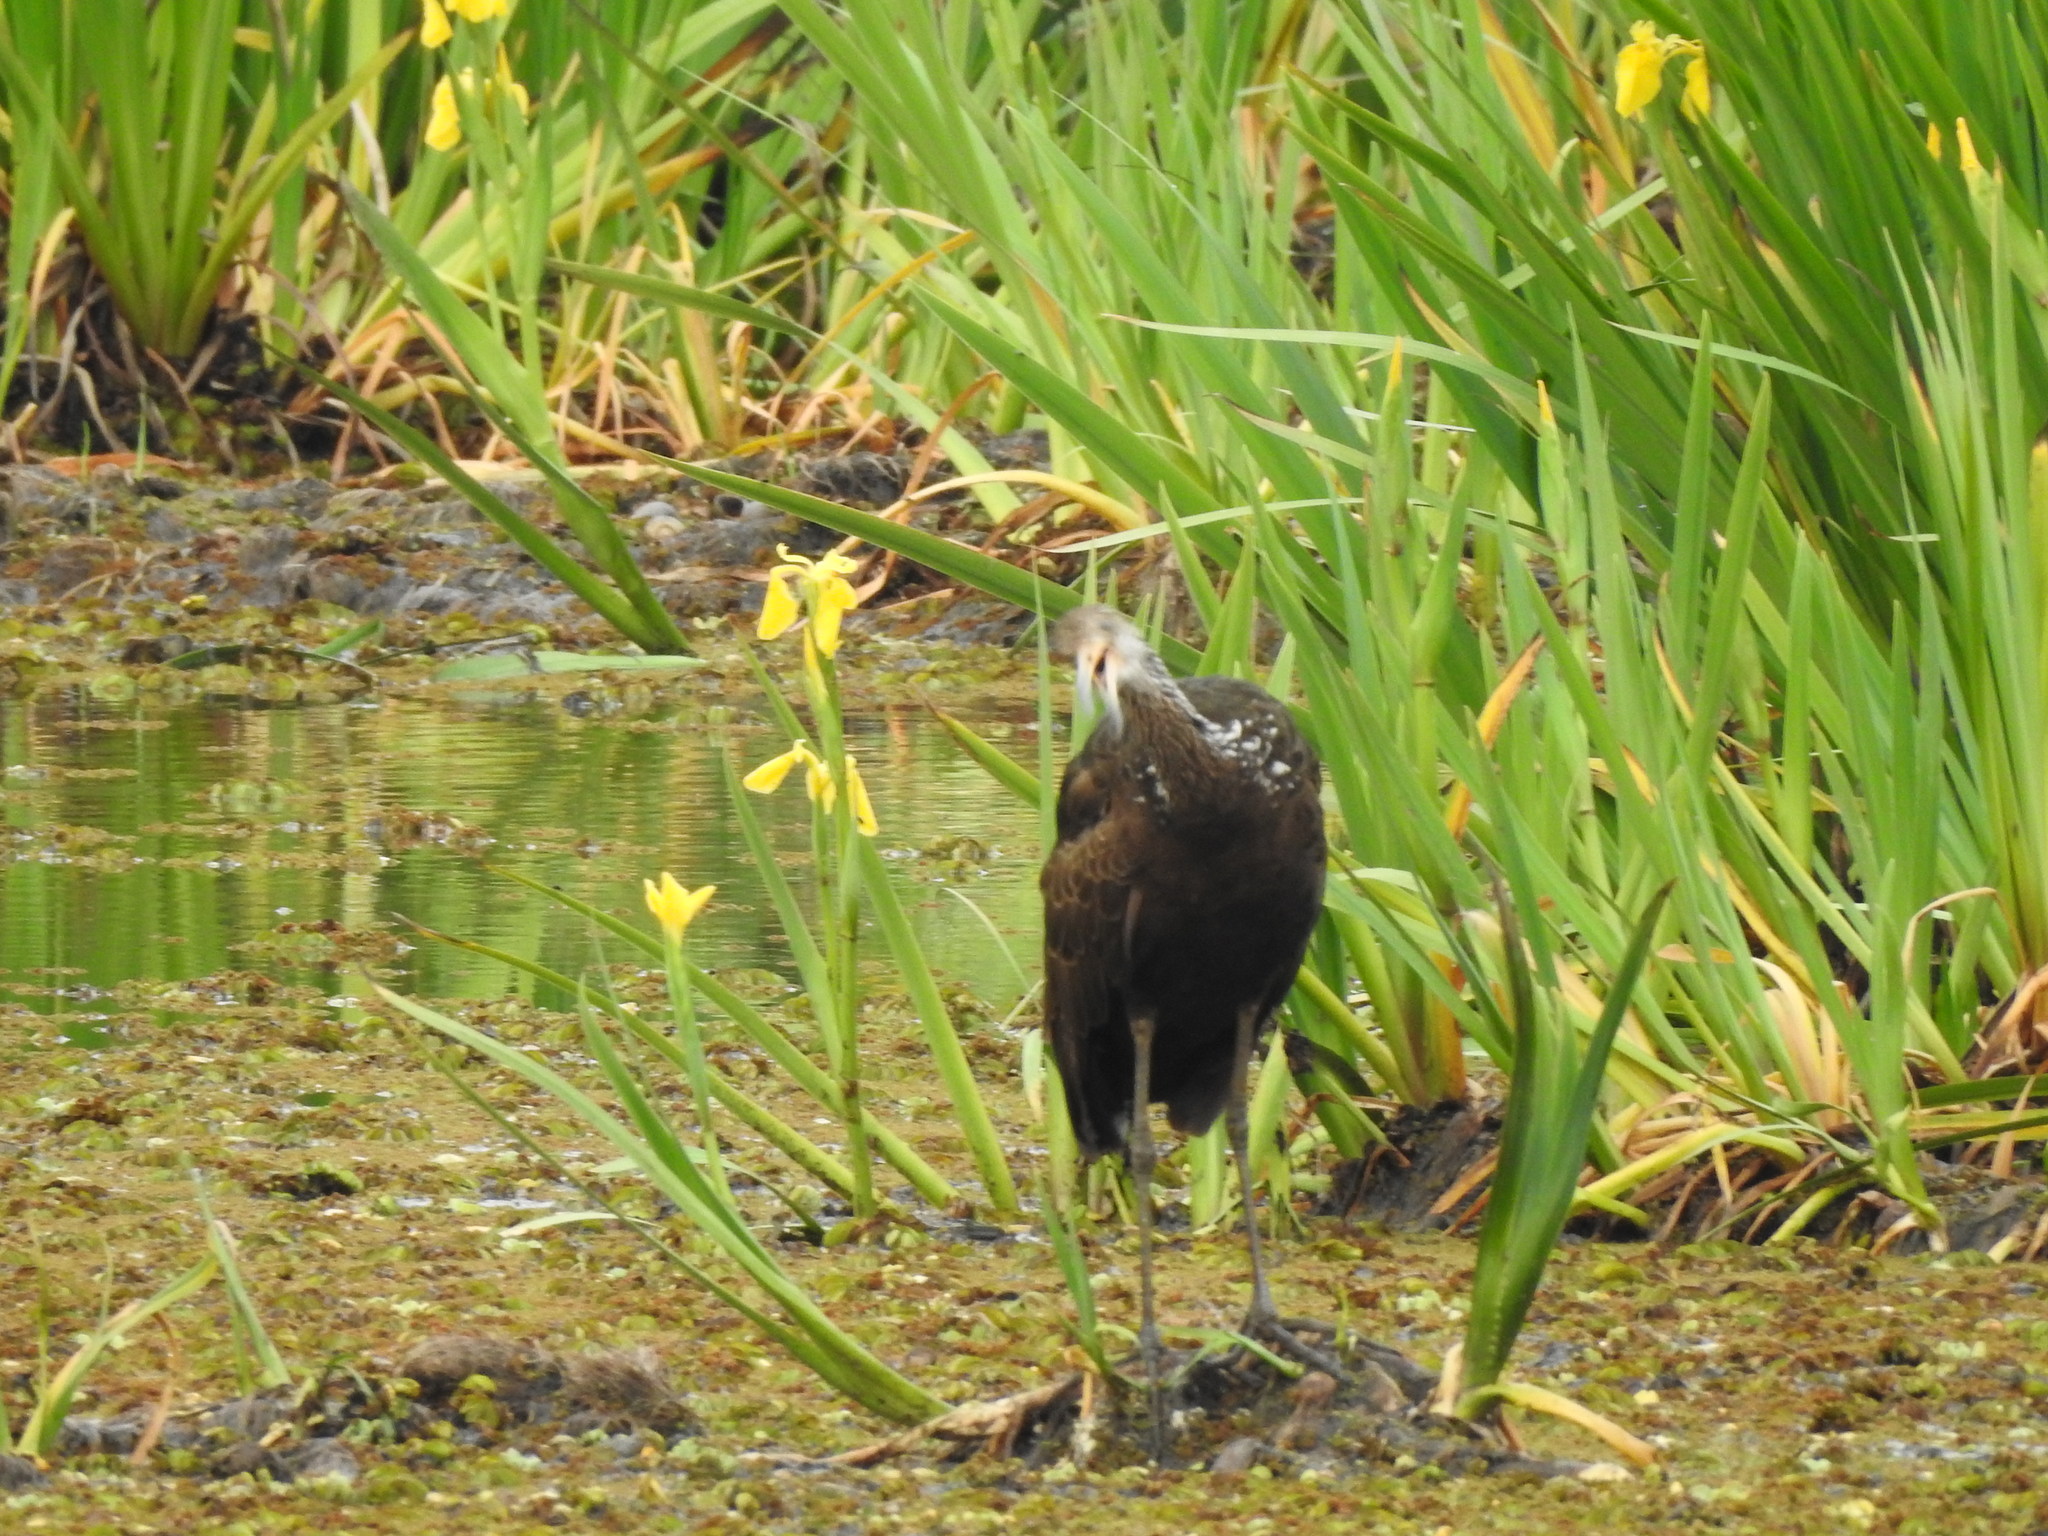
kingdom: Animalia
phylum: Chordata
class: Aves
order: Gruiformes
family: Aramidae
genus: Aramus
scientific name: Aramus guarauna
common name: Limpkin
